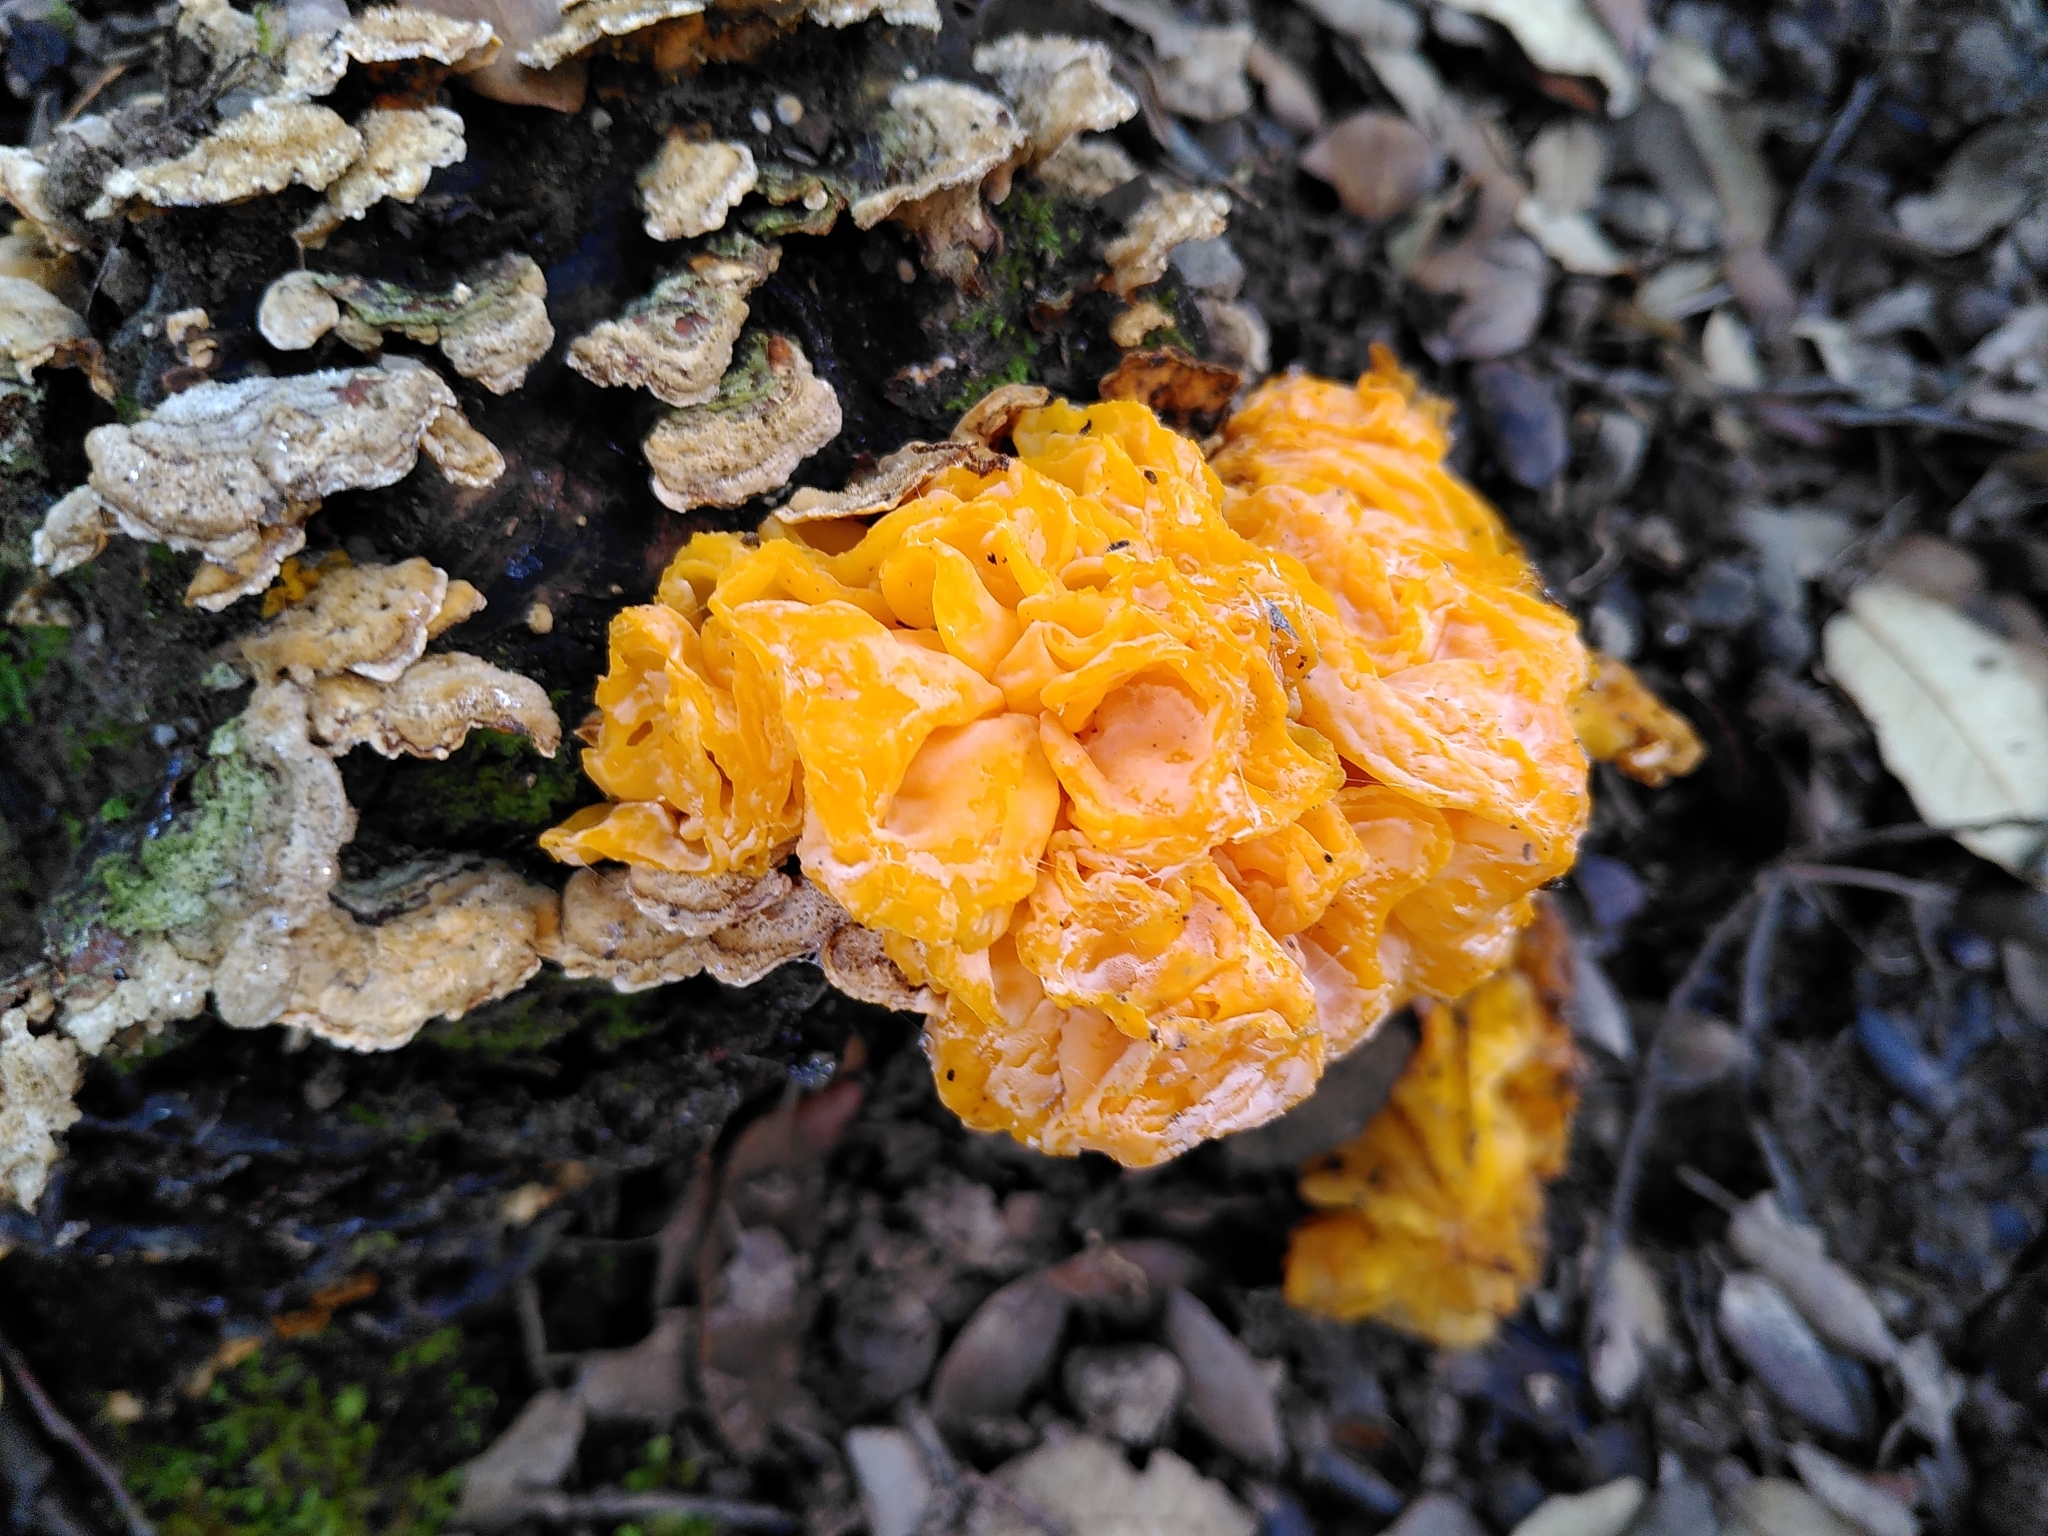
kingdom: Fungi
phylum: Basidiomycota
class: Tremellomycetes
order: Tremellales
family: Naemateliaceae
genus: Naematelia
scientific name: Naematelia aurantia
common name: Golden ear
